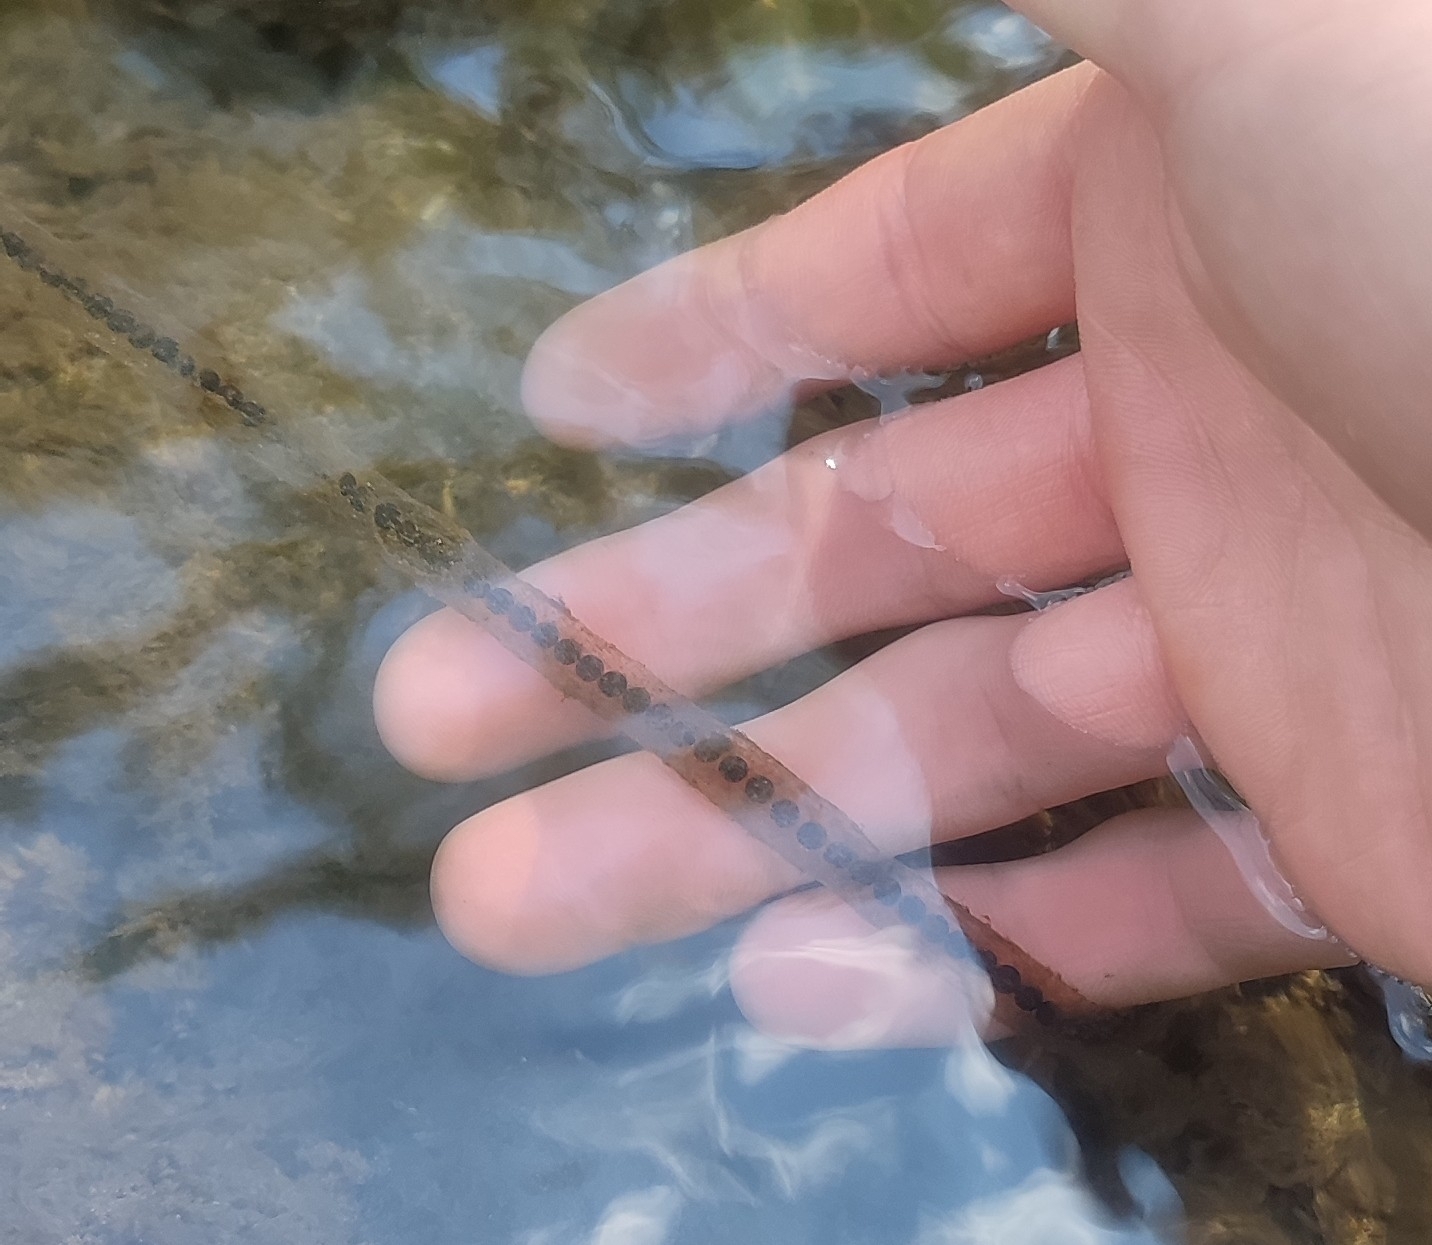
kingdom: Animalia
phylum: Chordata
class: Amphibia
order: Anura
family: Bufonidae
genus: Bufo
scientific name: Bufo spinosus
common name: Western common toad
